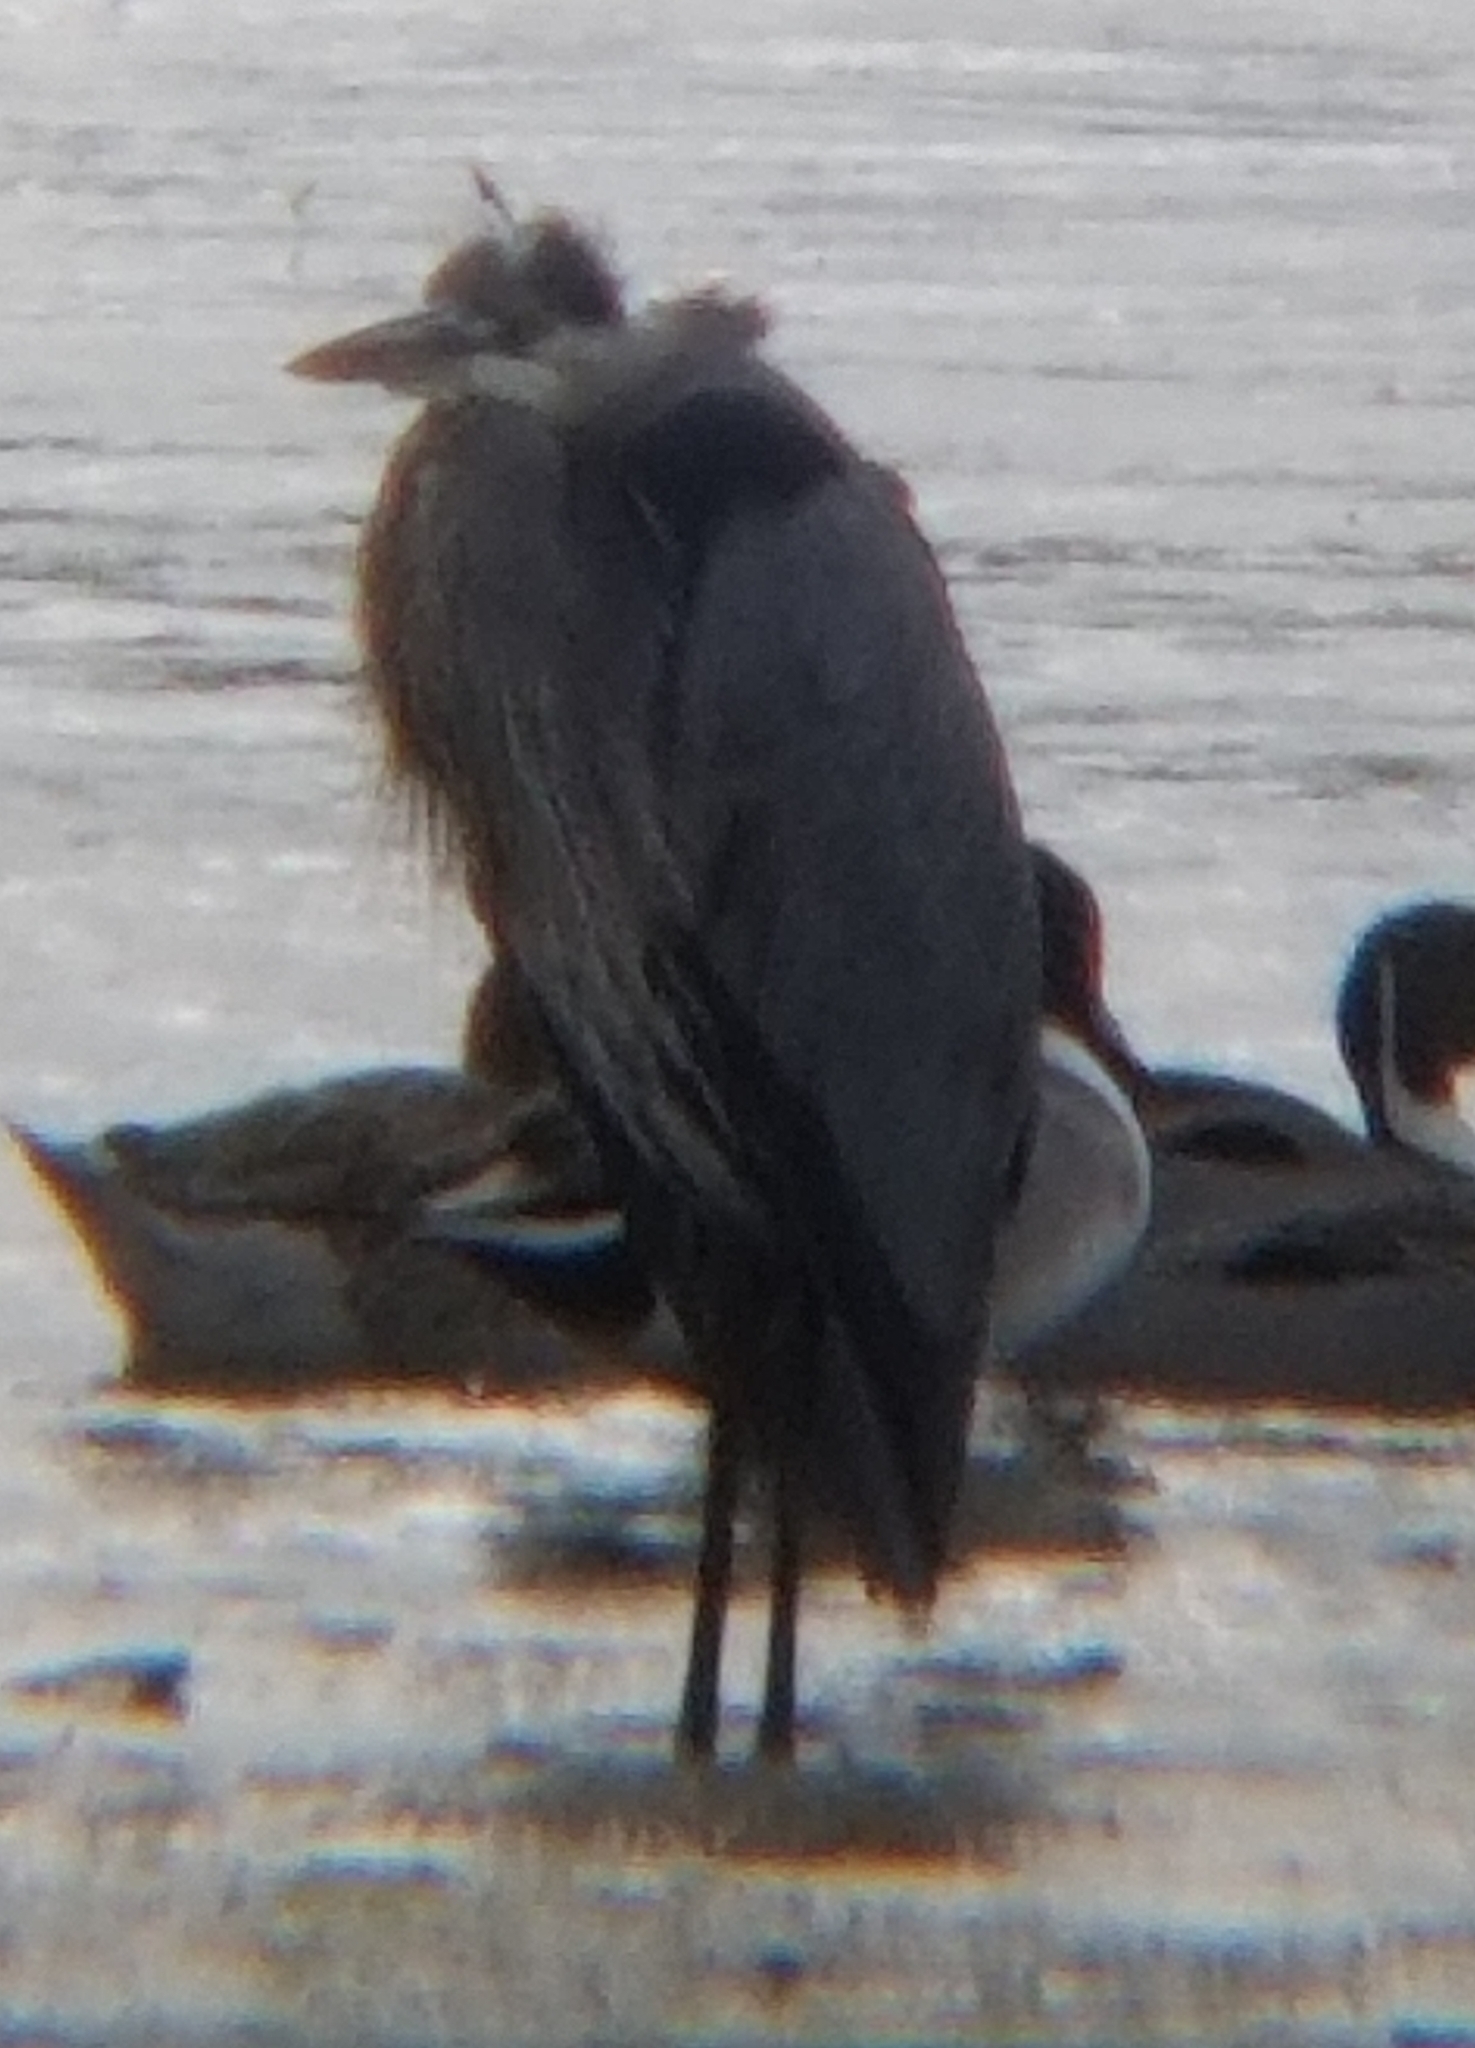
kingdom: Animalia
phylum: Chordata
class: Aves
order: Pelecaniformes
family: Ardeidae
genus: Ardea
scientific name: Ardea herodias
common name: Great blue heron
